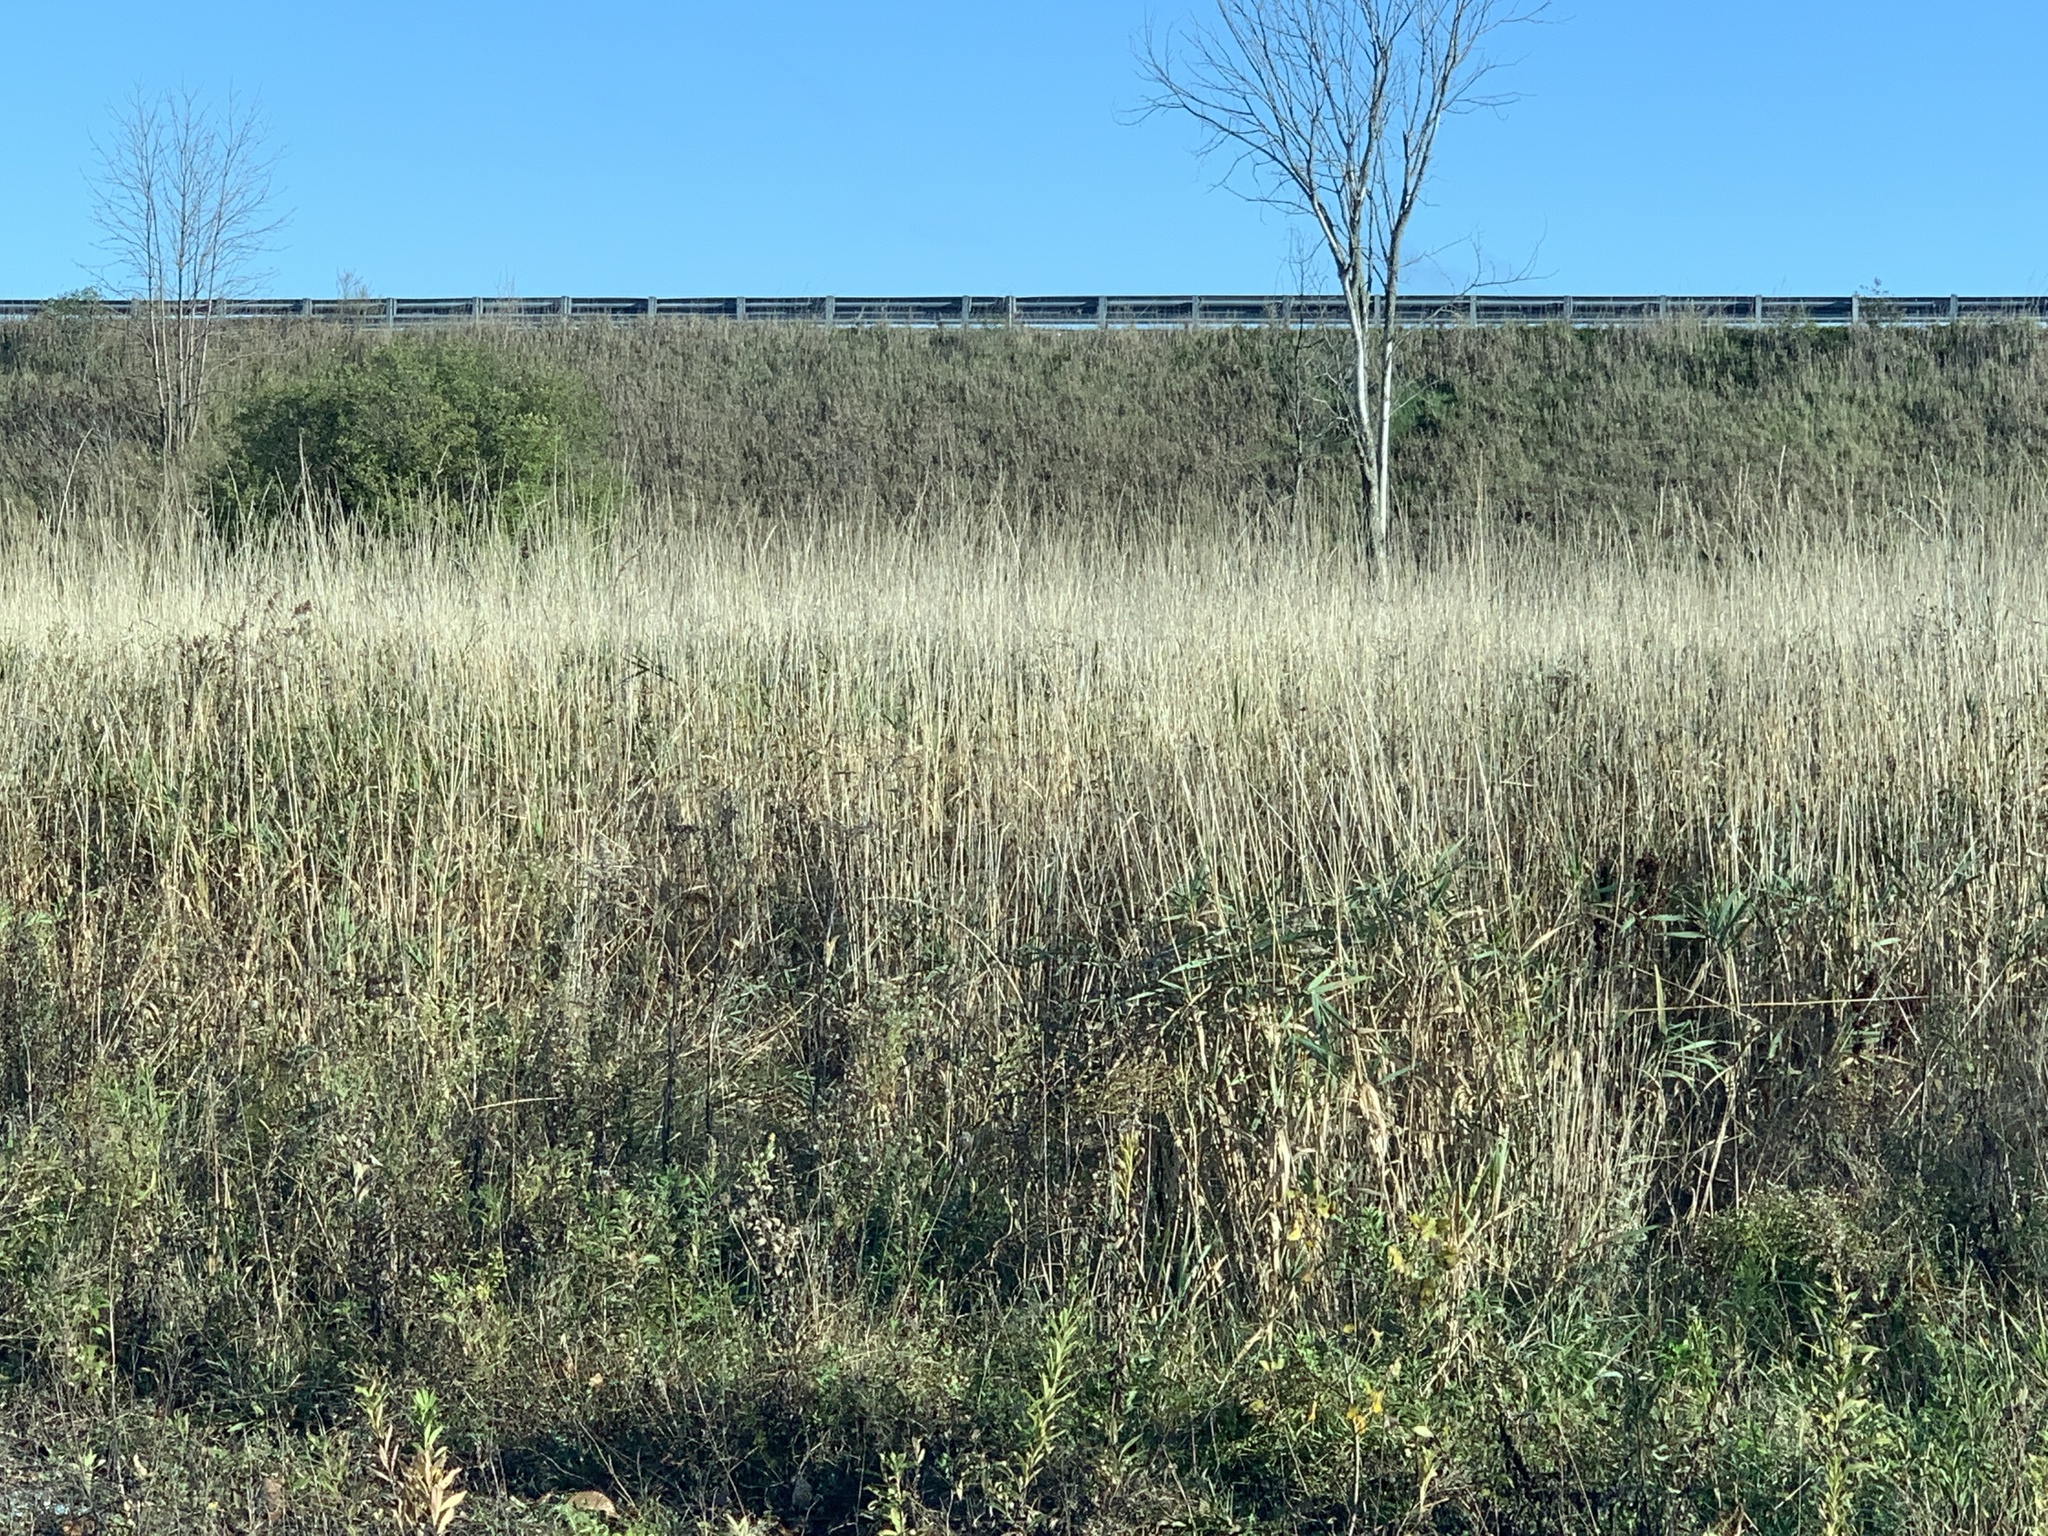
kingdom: Plantae
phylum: Tracheophyta
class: Liliopsida
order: Poales
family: Poaceae
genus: Phalaris
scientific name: Phalaris arundinacea
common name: Reed canary-grass
